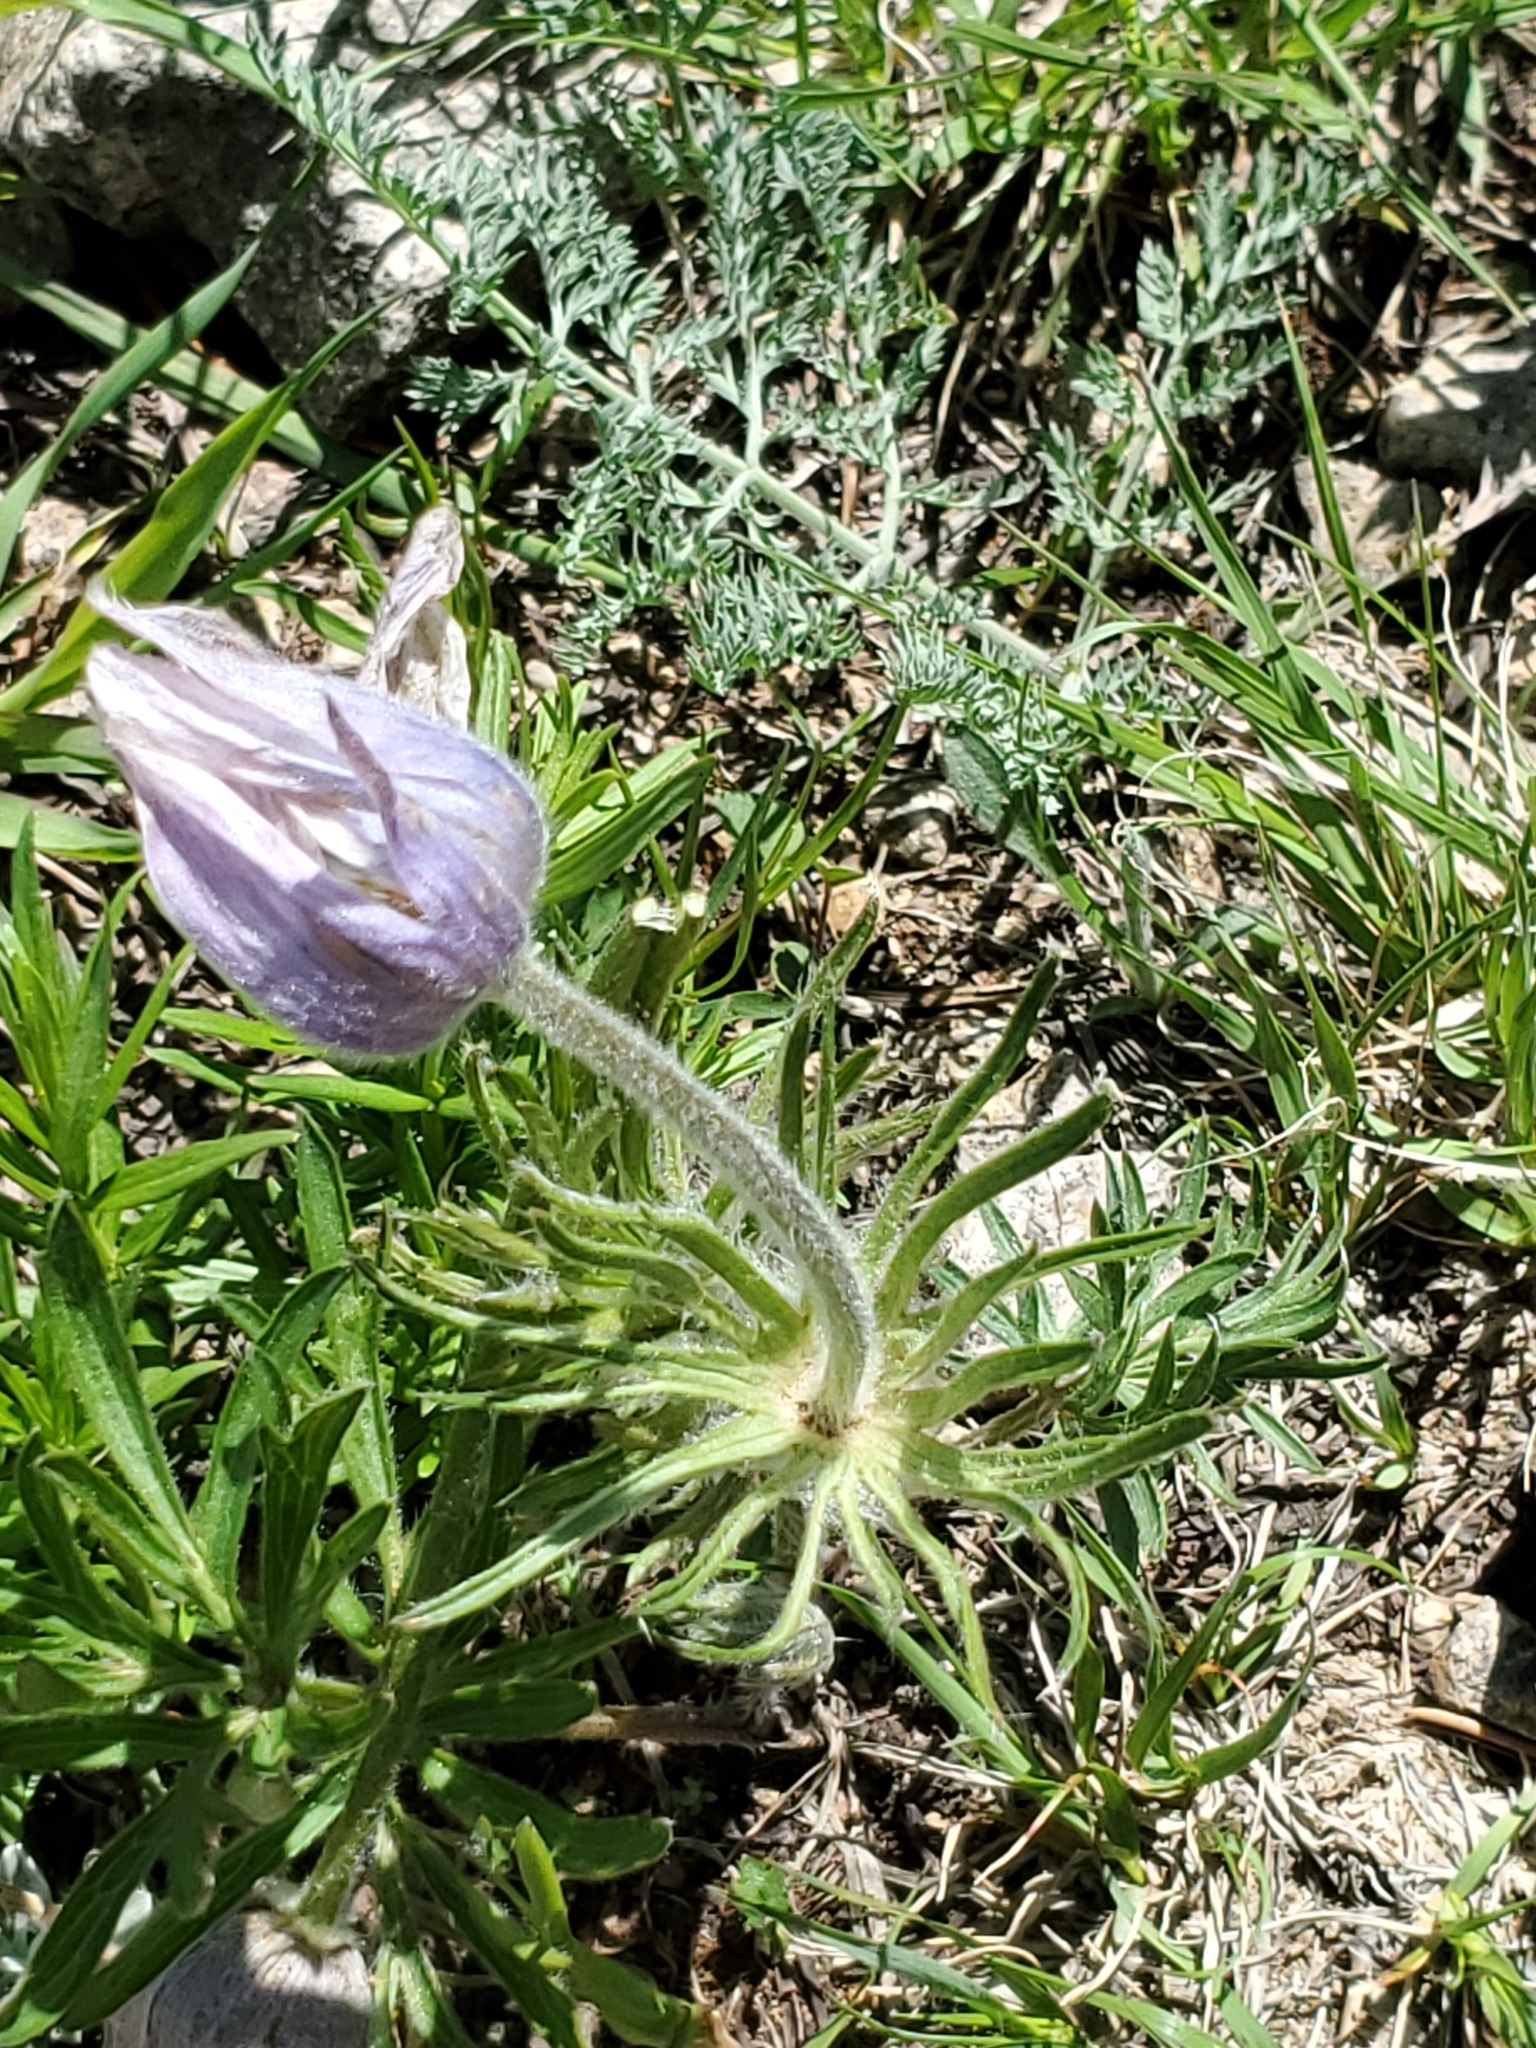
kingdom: Plantae
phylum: Tracheophyta
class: Magnoliopsida
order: Ranunculales
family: Ranunculaceae
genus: Pulsatilla
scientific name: Pulsatilla nuttalliana
